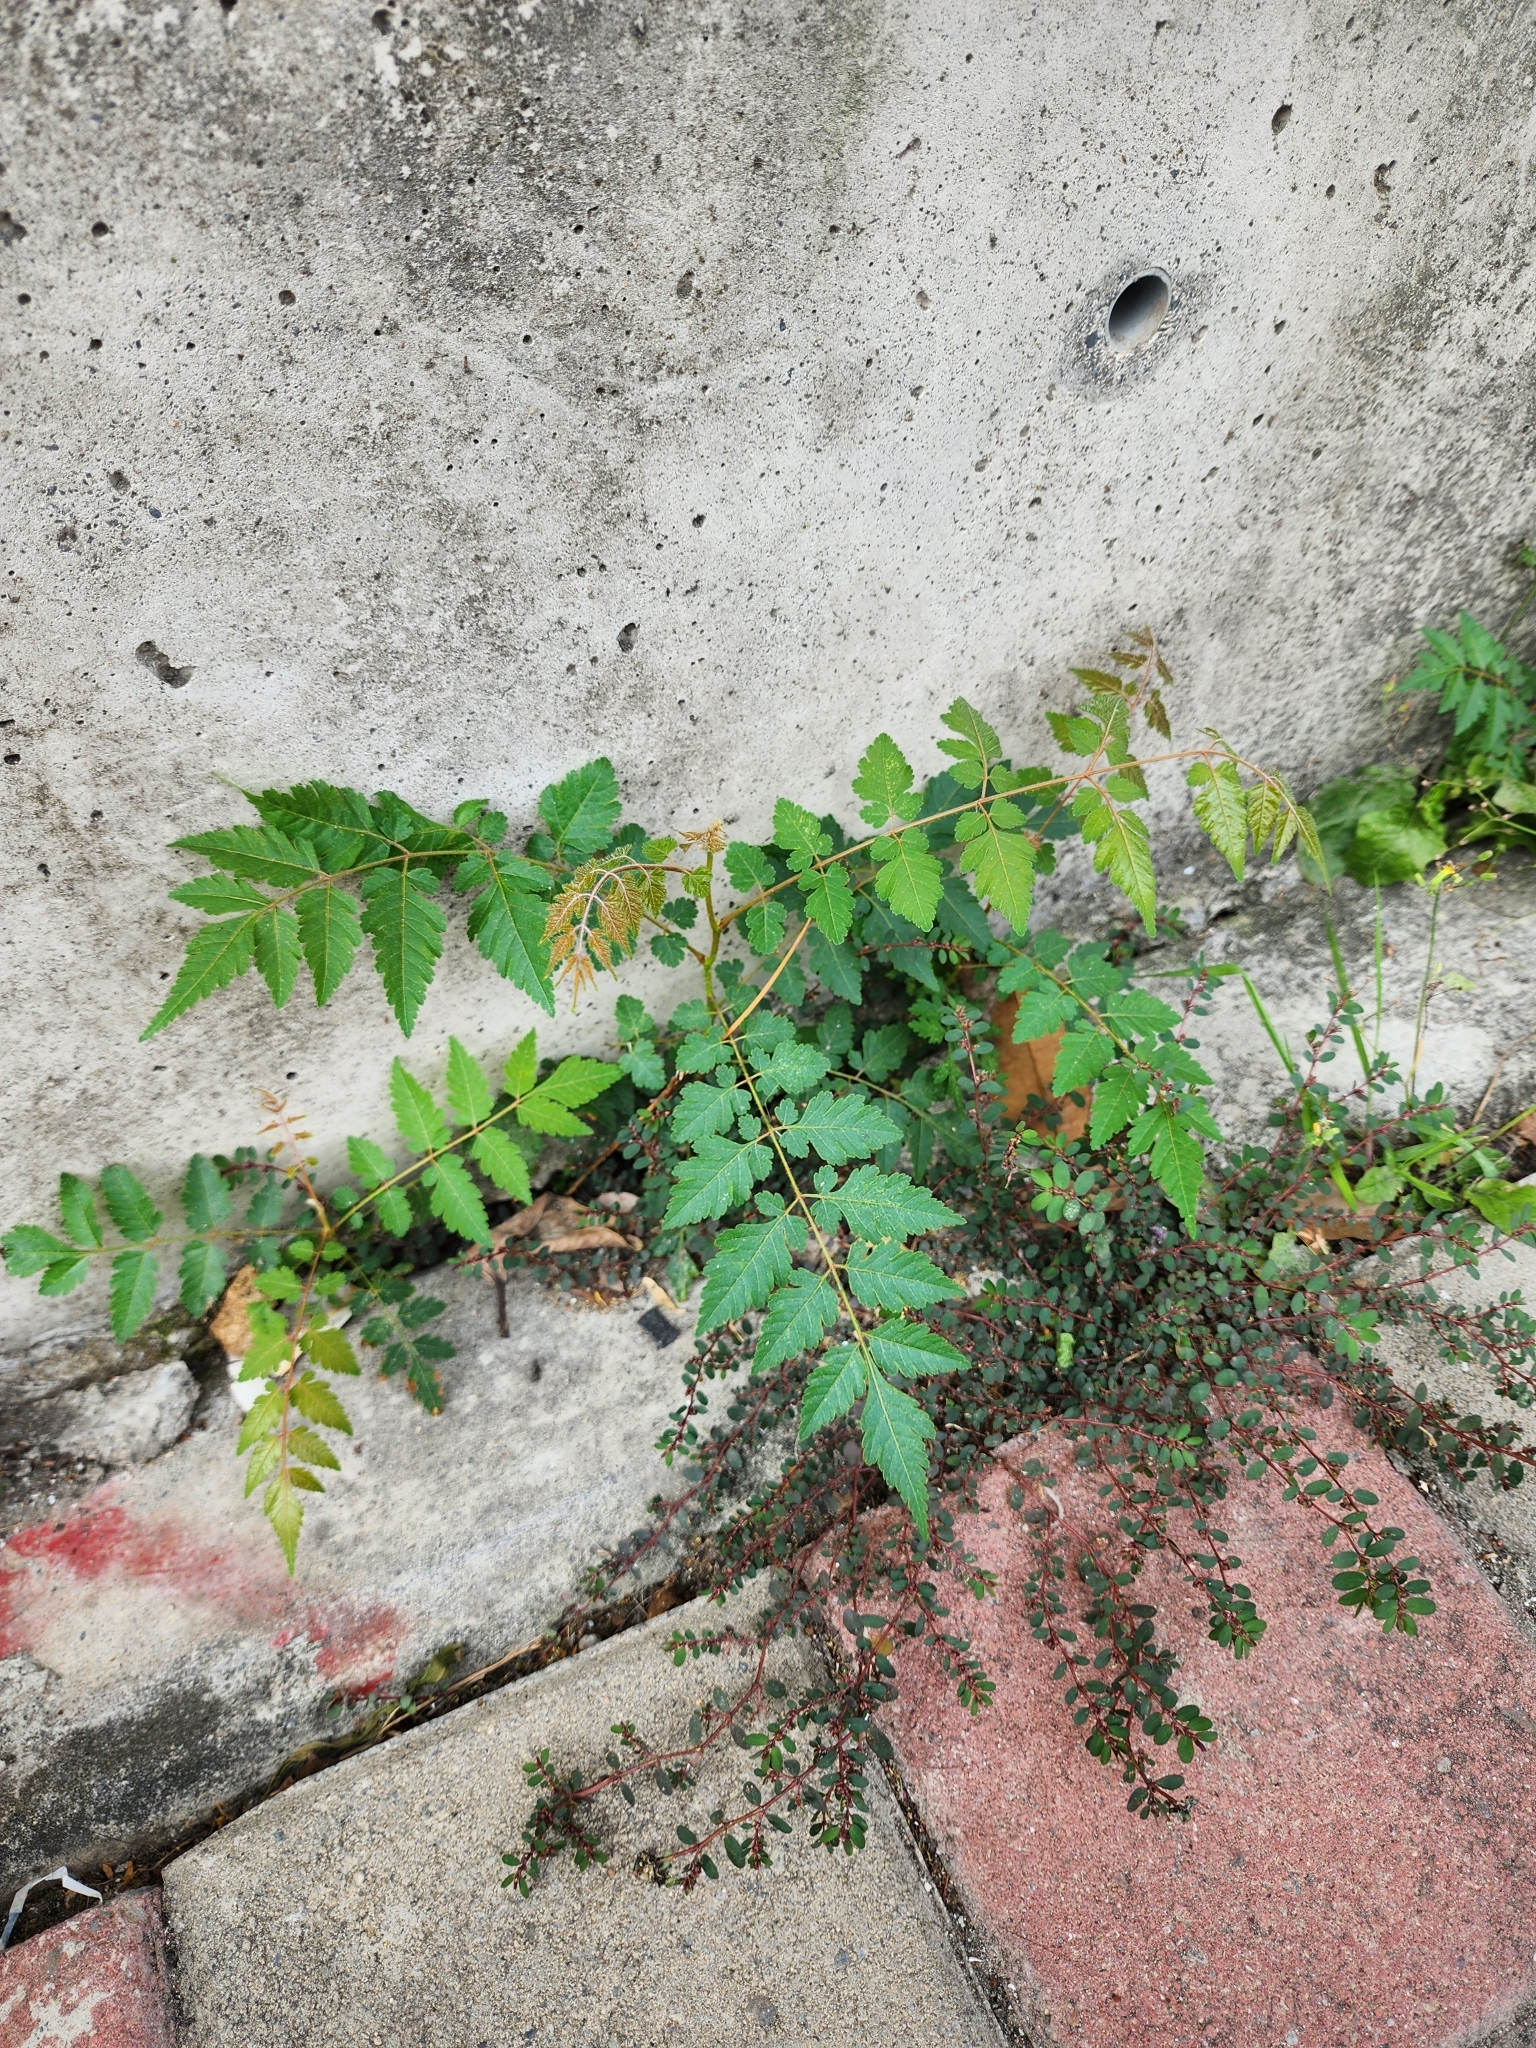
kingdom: Plantae
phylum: Tracheophyta
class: Magnoliopsida
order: Sapindales
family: Sapindaceae
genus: Koelreuteria
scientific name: Koelreuteria elegans
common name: Chinese flame tree
